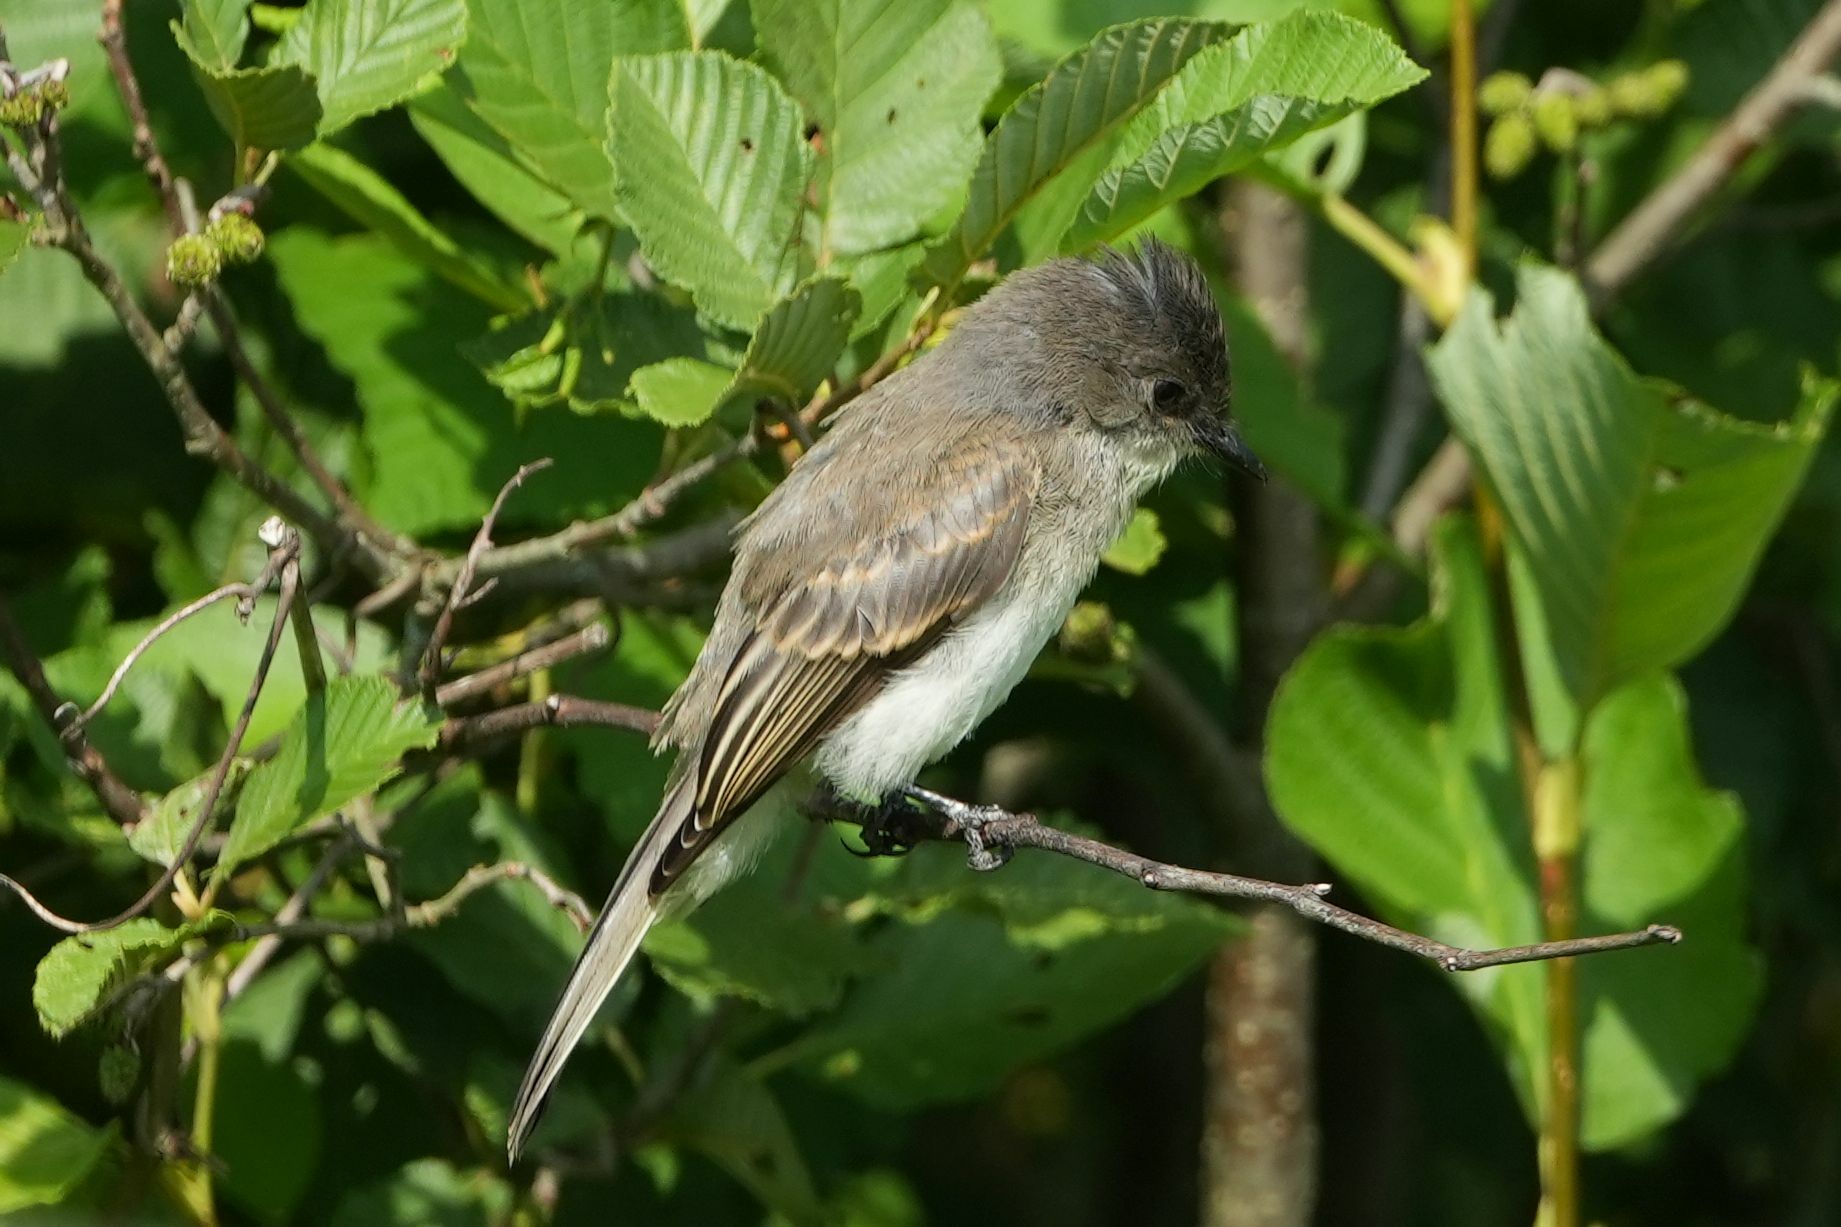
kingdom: Animalia
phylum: Chordata
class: Aves
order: Passeriformes
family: Tyrannidae
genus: Sayornis
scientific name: Sayornis phoebe
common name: Eastern phoebe
